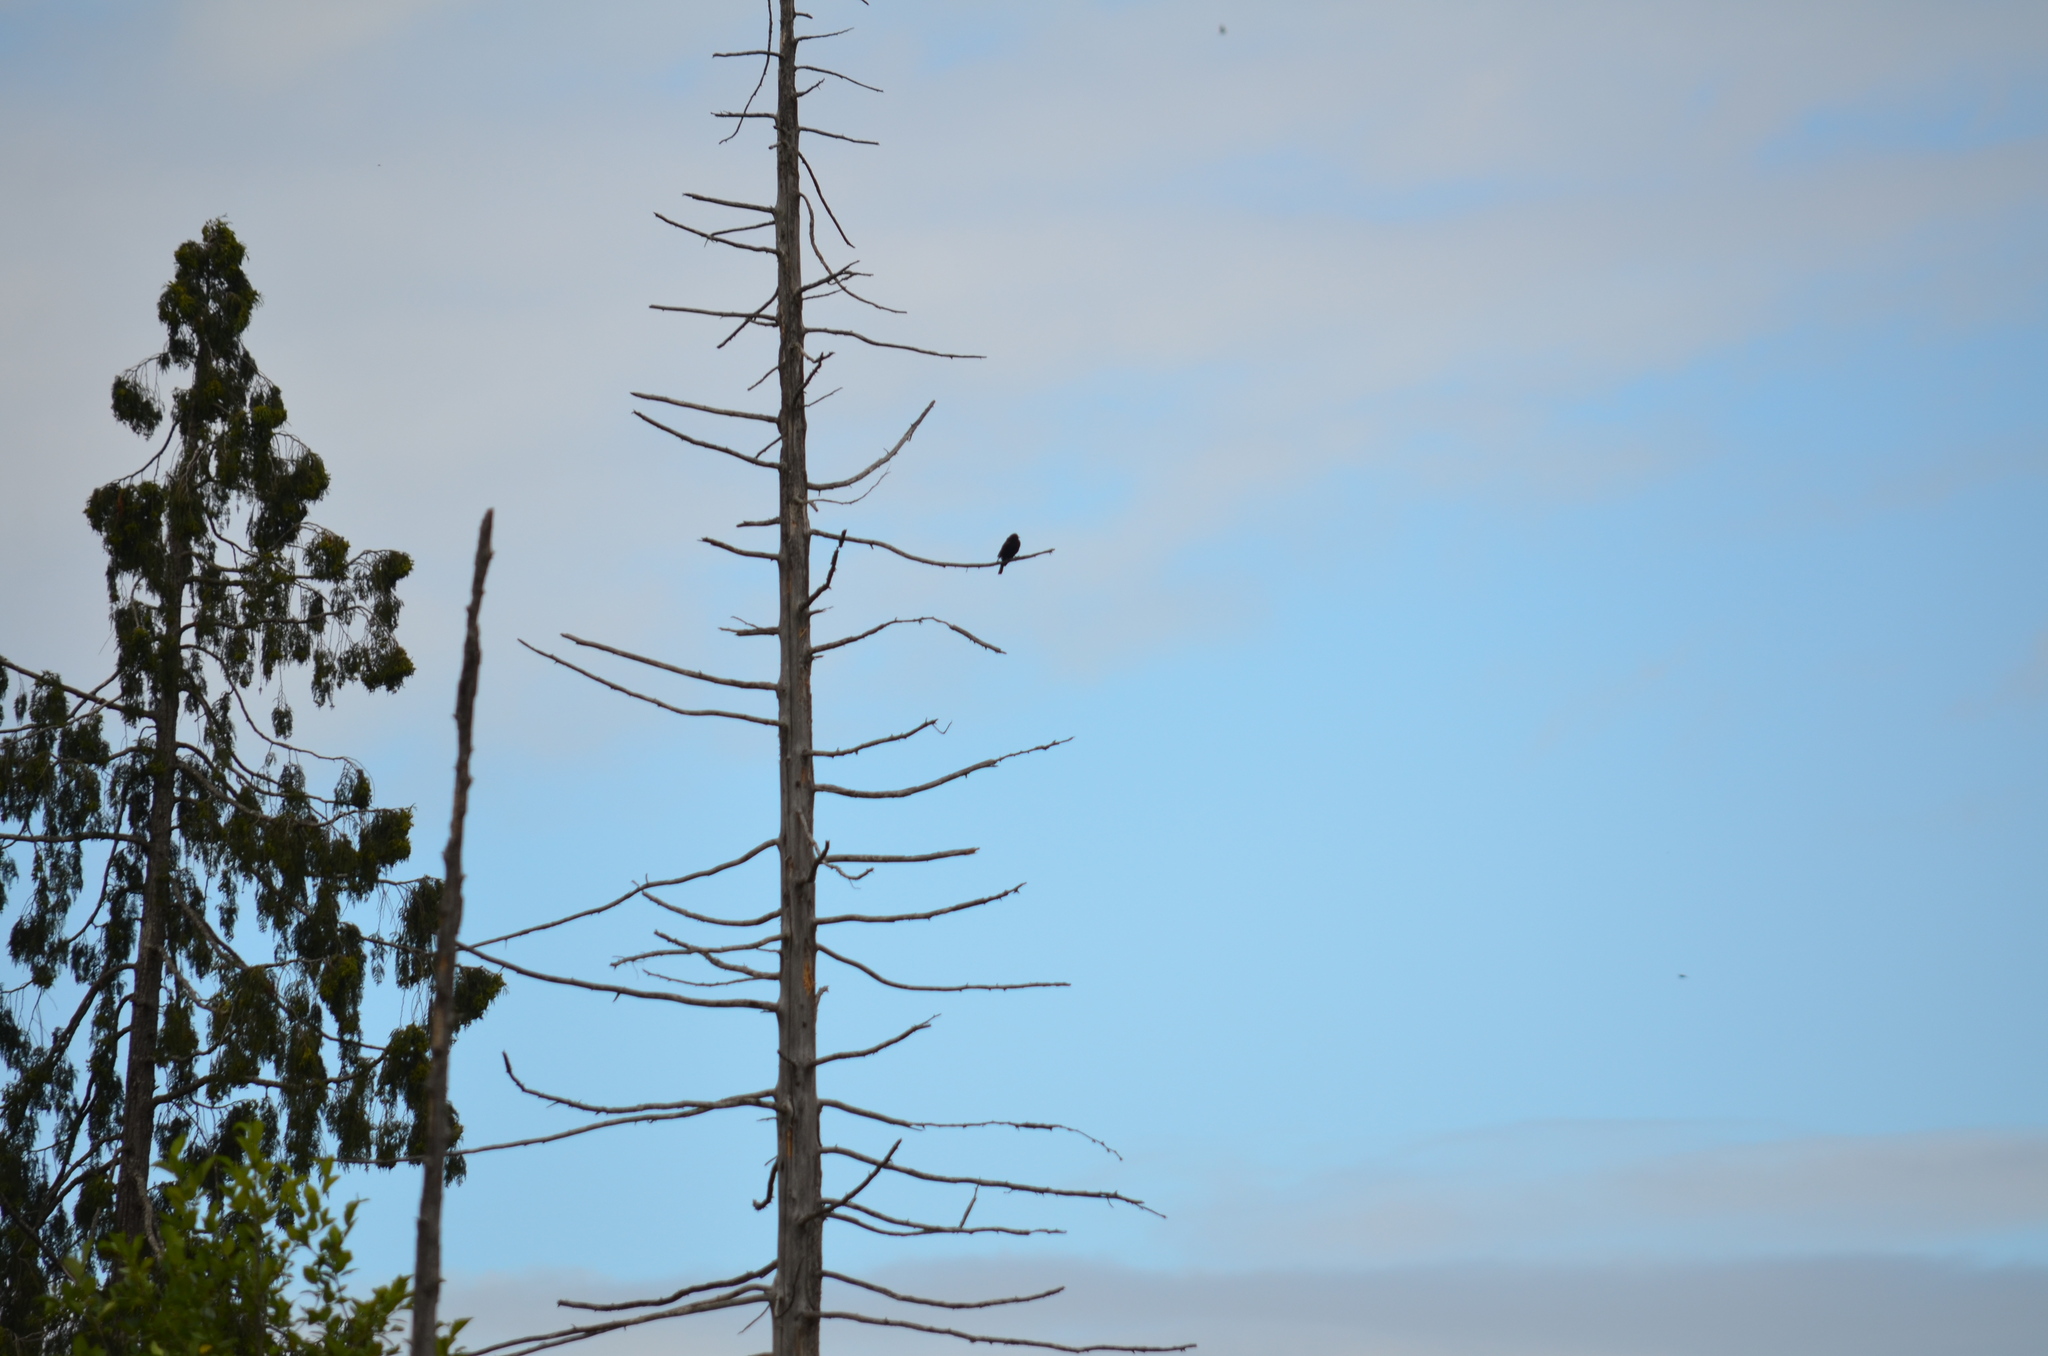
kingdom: Animalia
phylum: Chordata
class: Aves
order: Passeriformes
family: Icteridae
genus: Agelaius
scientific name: Agelaius phoeniceus
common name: Red-winged blackbird
